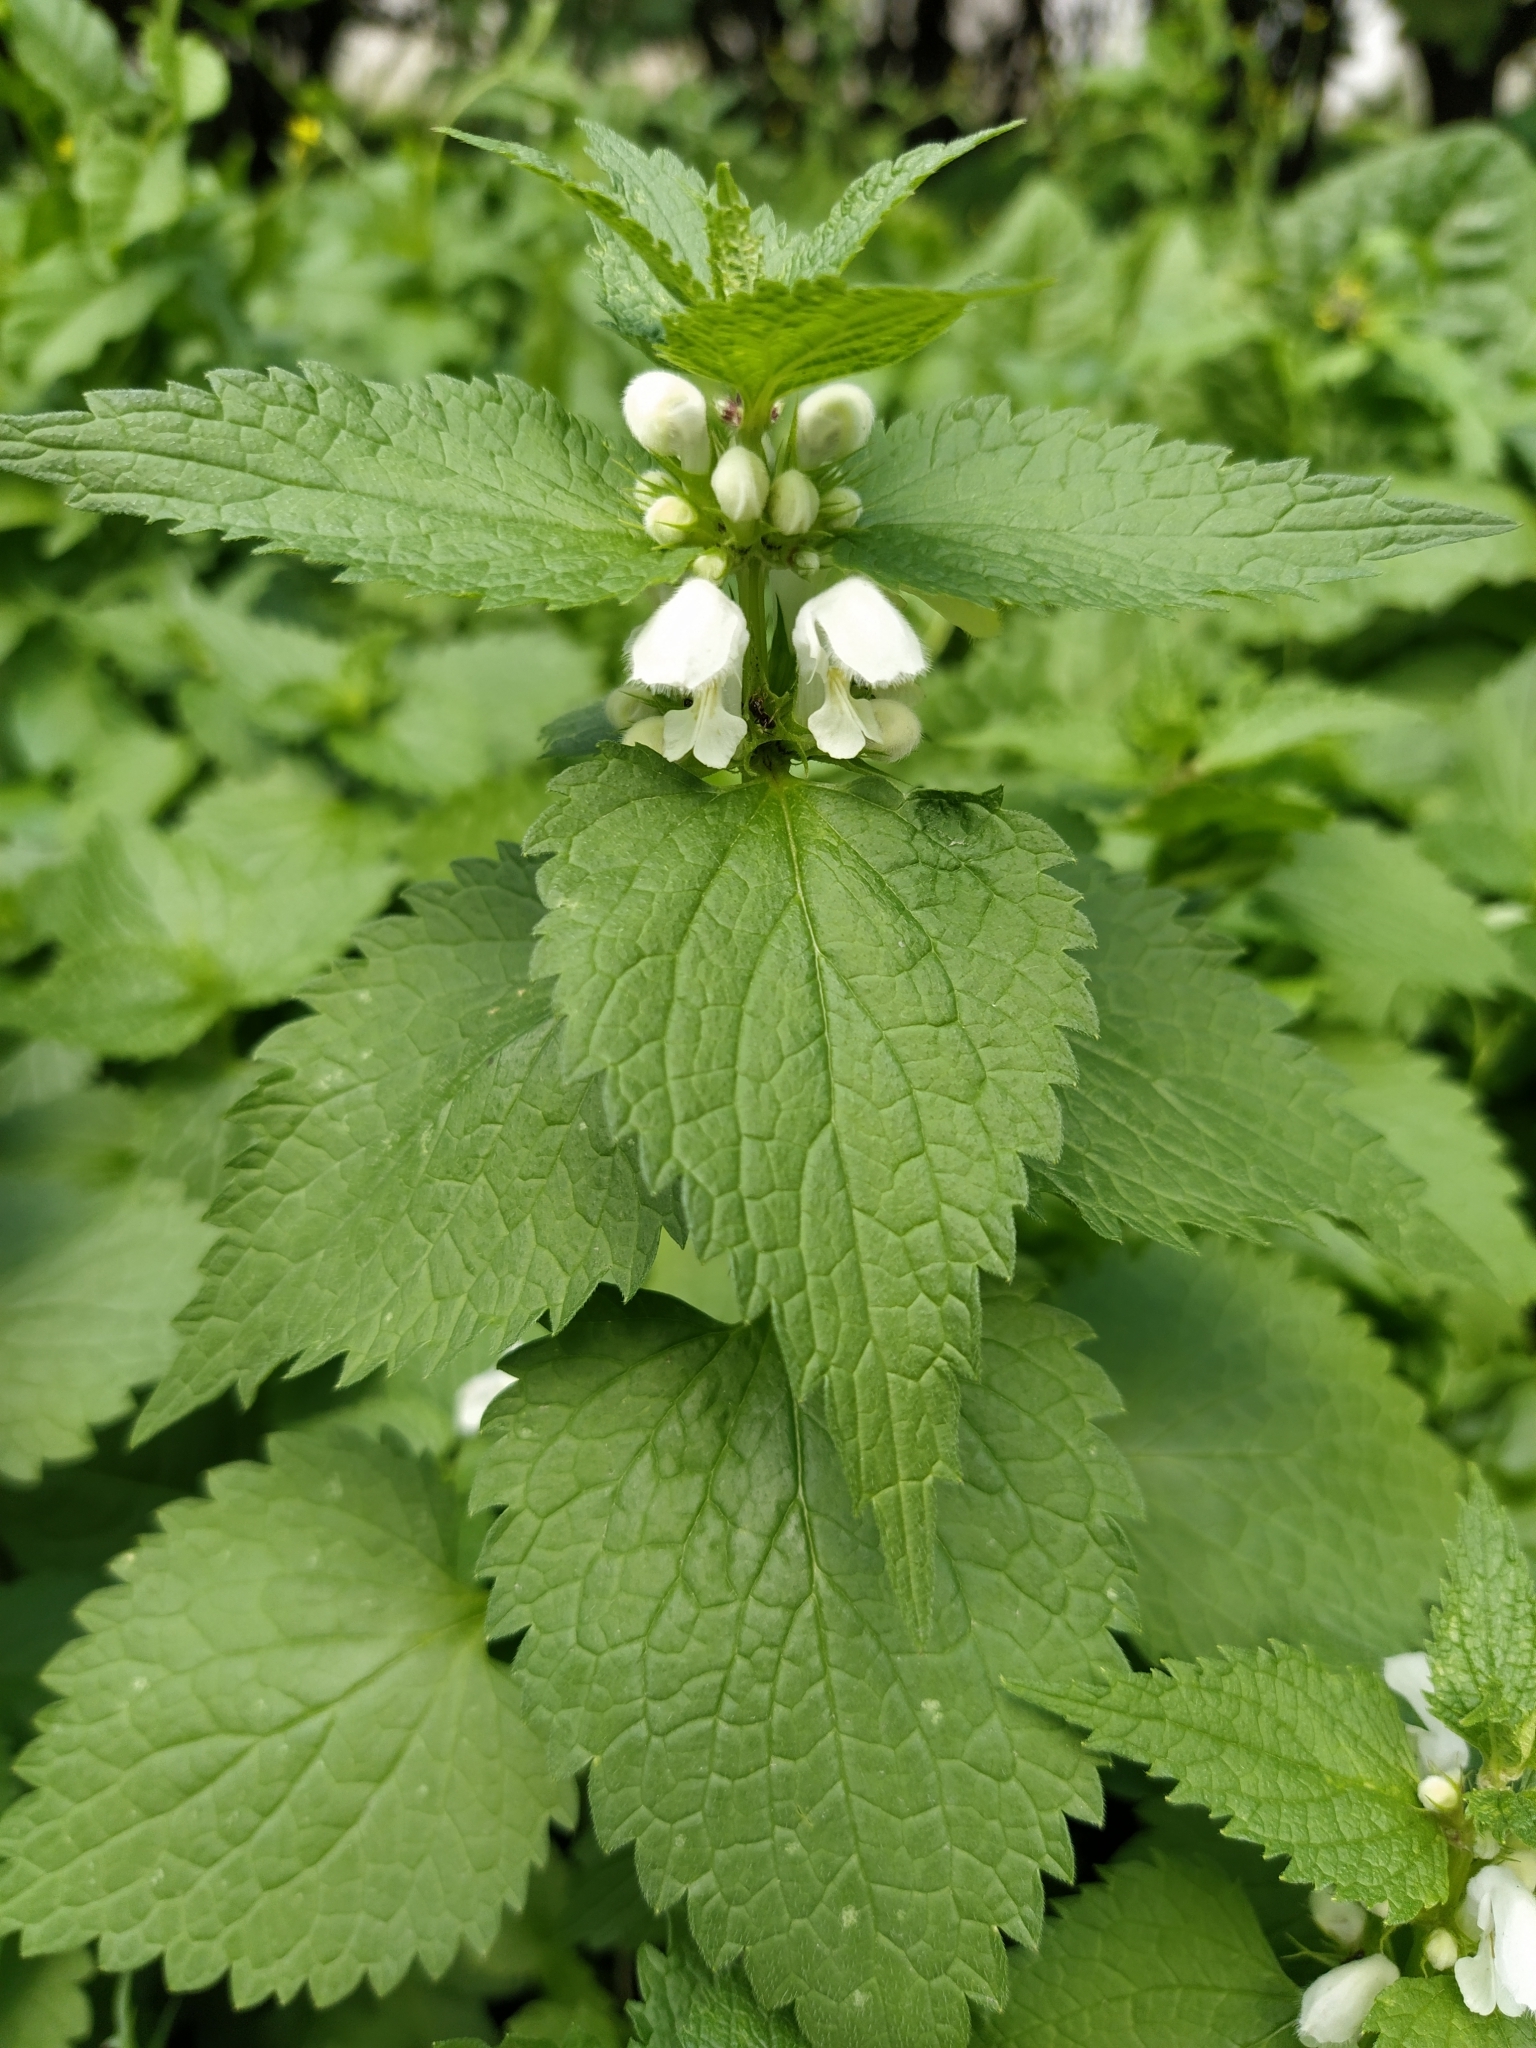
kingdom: Plantae
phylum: Tracheophyta
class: Magnoliopsida
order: Lamiales
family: Lamiaceae
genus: Lamium
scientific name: Lamium album
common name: White dead-nettle
